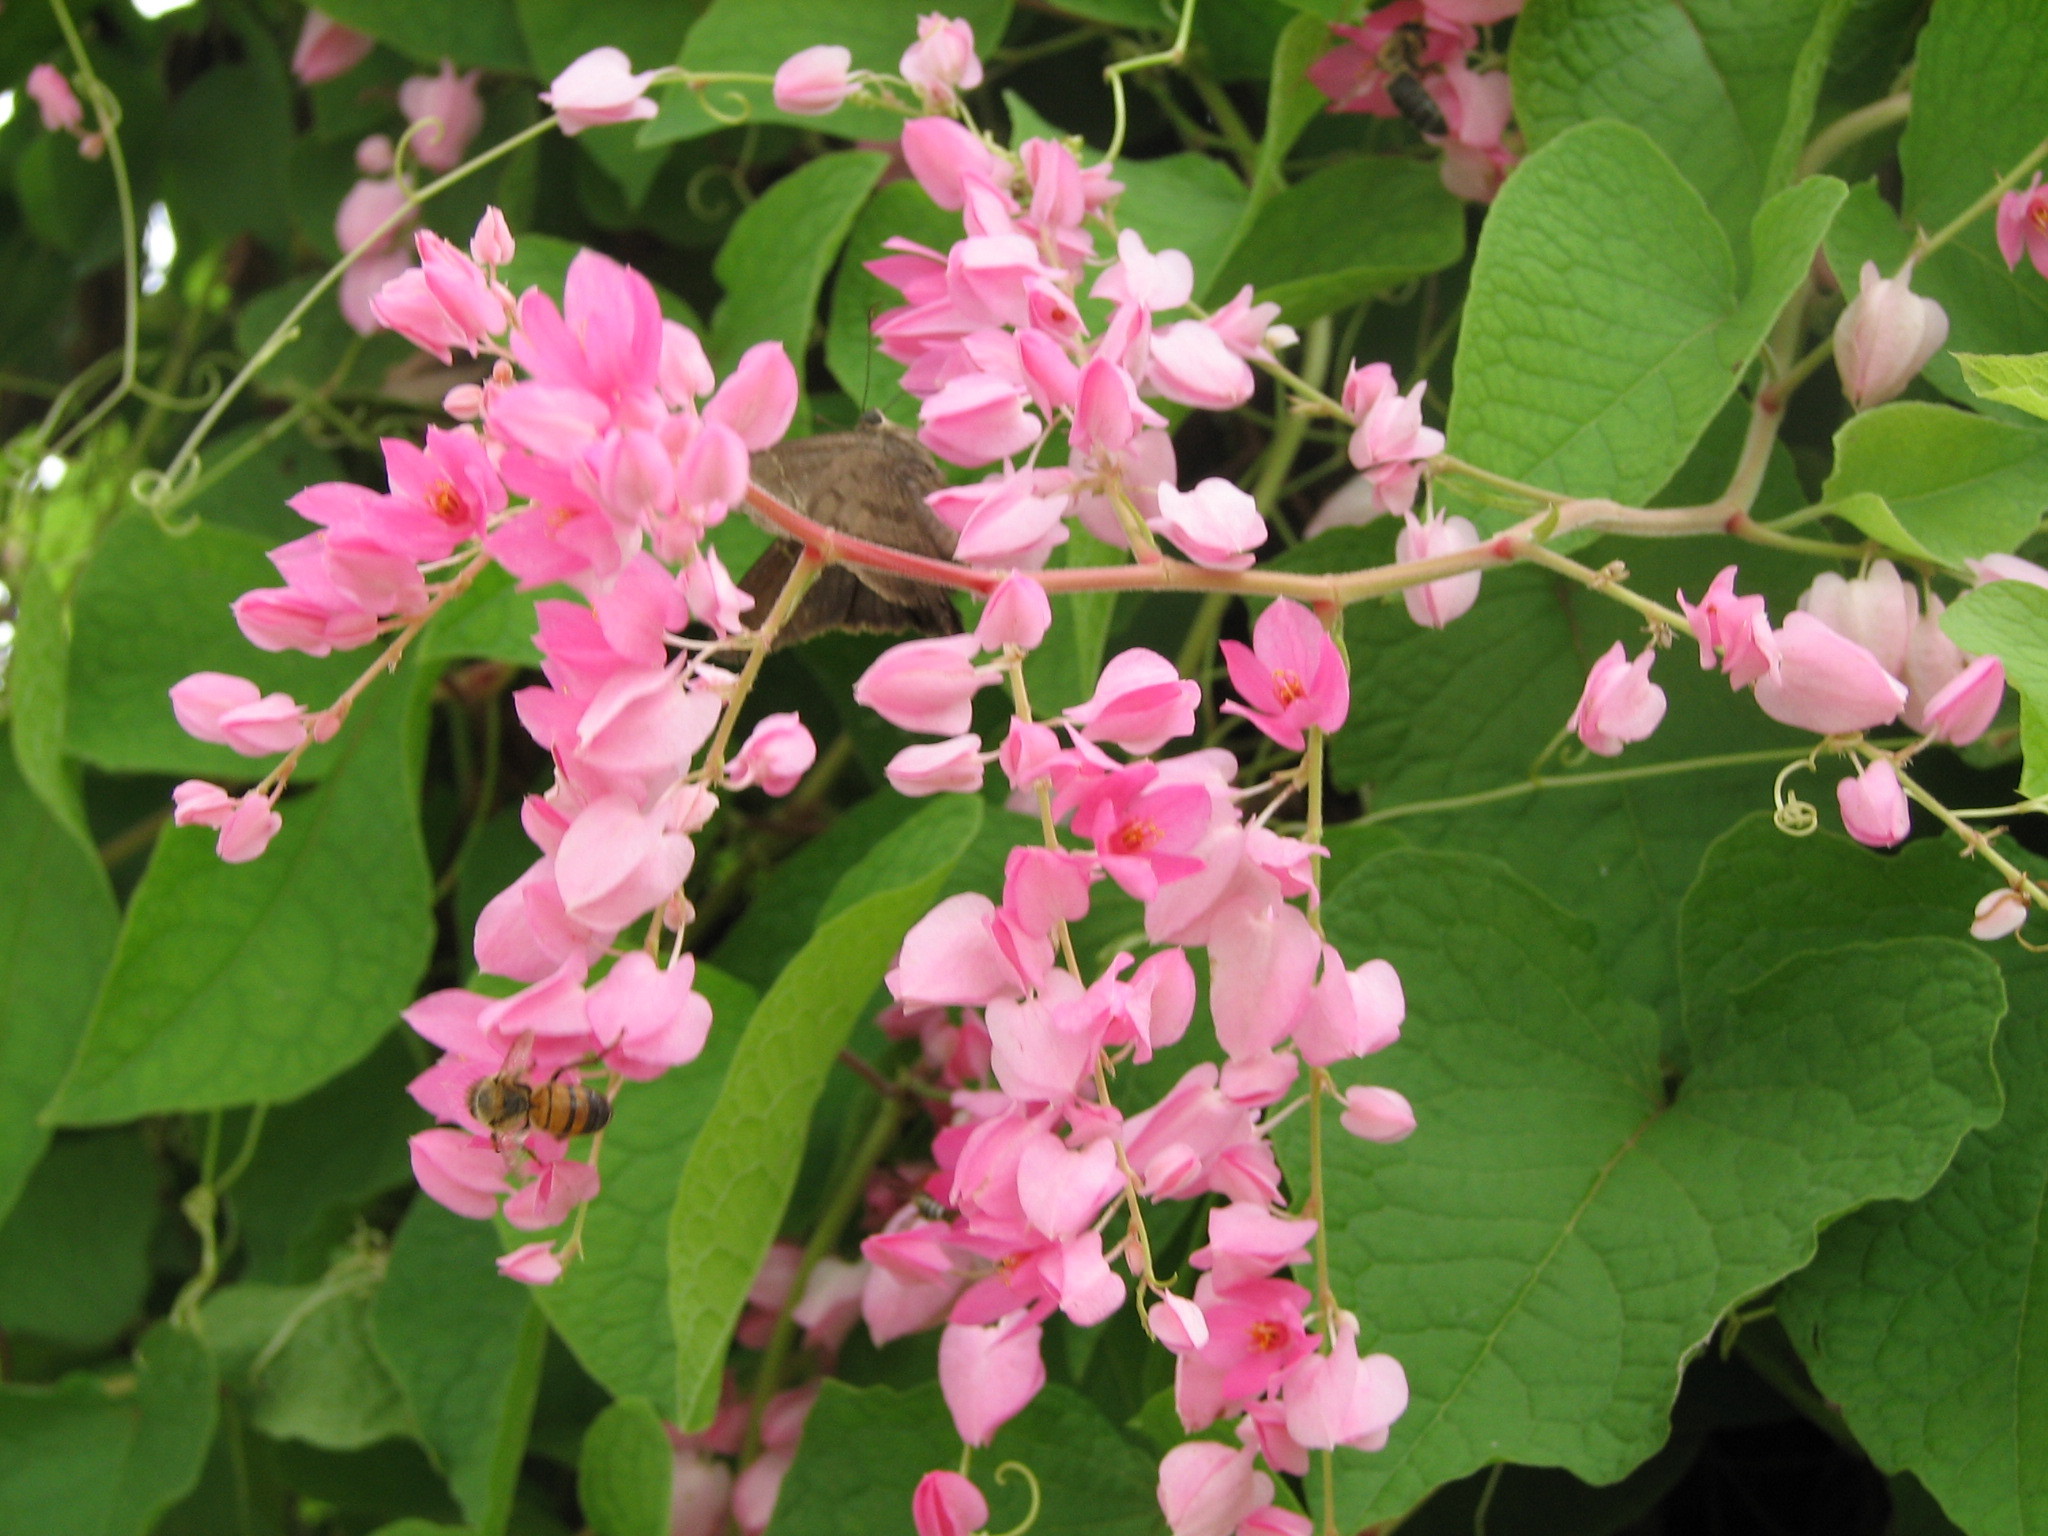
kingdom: Plantae
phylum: Tracheophyta
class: Magnoliopsida
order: Caryophyllales
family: Polygonaceae
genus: Antigonon
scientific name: Antigonon leptopus
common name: Coral vine
